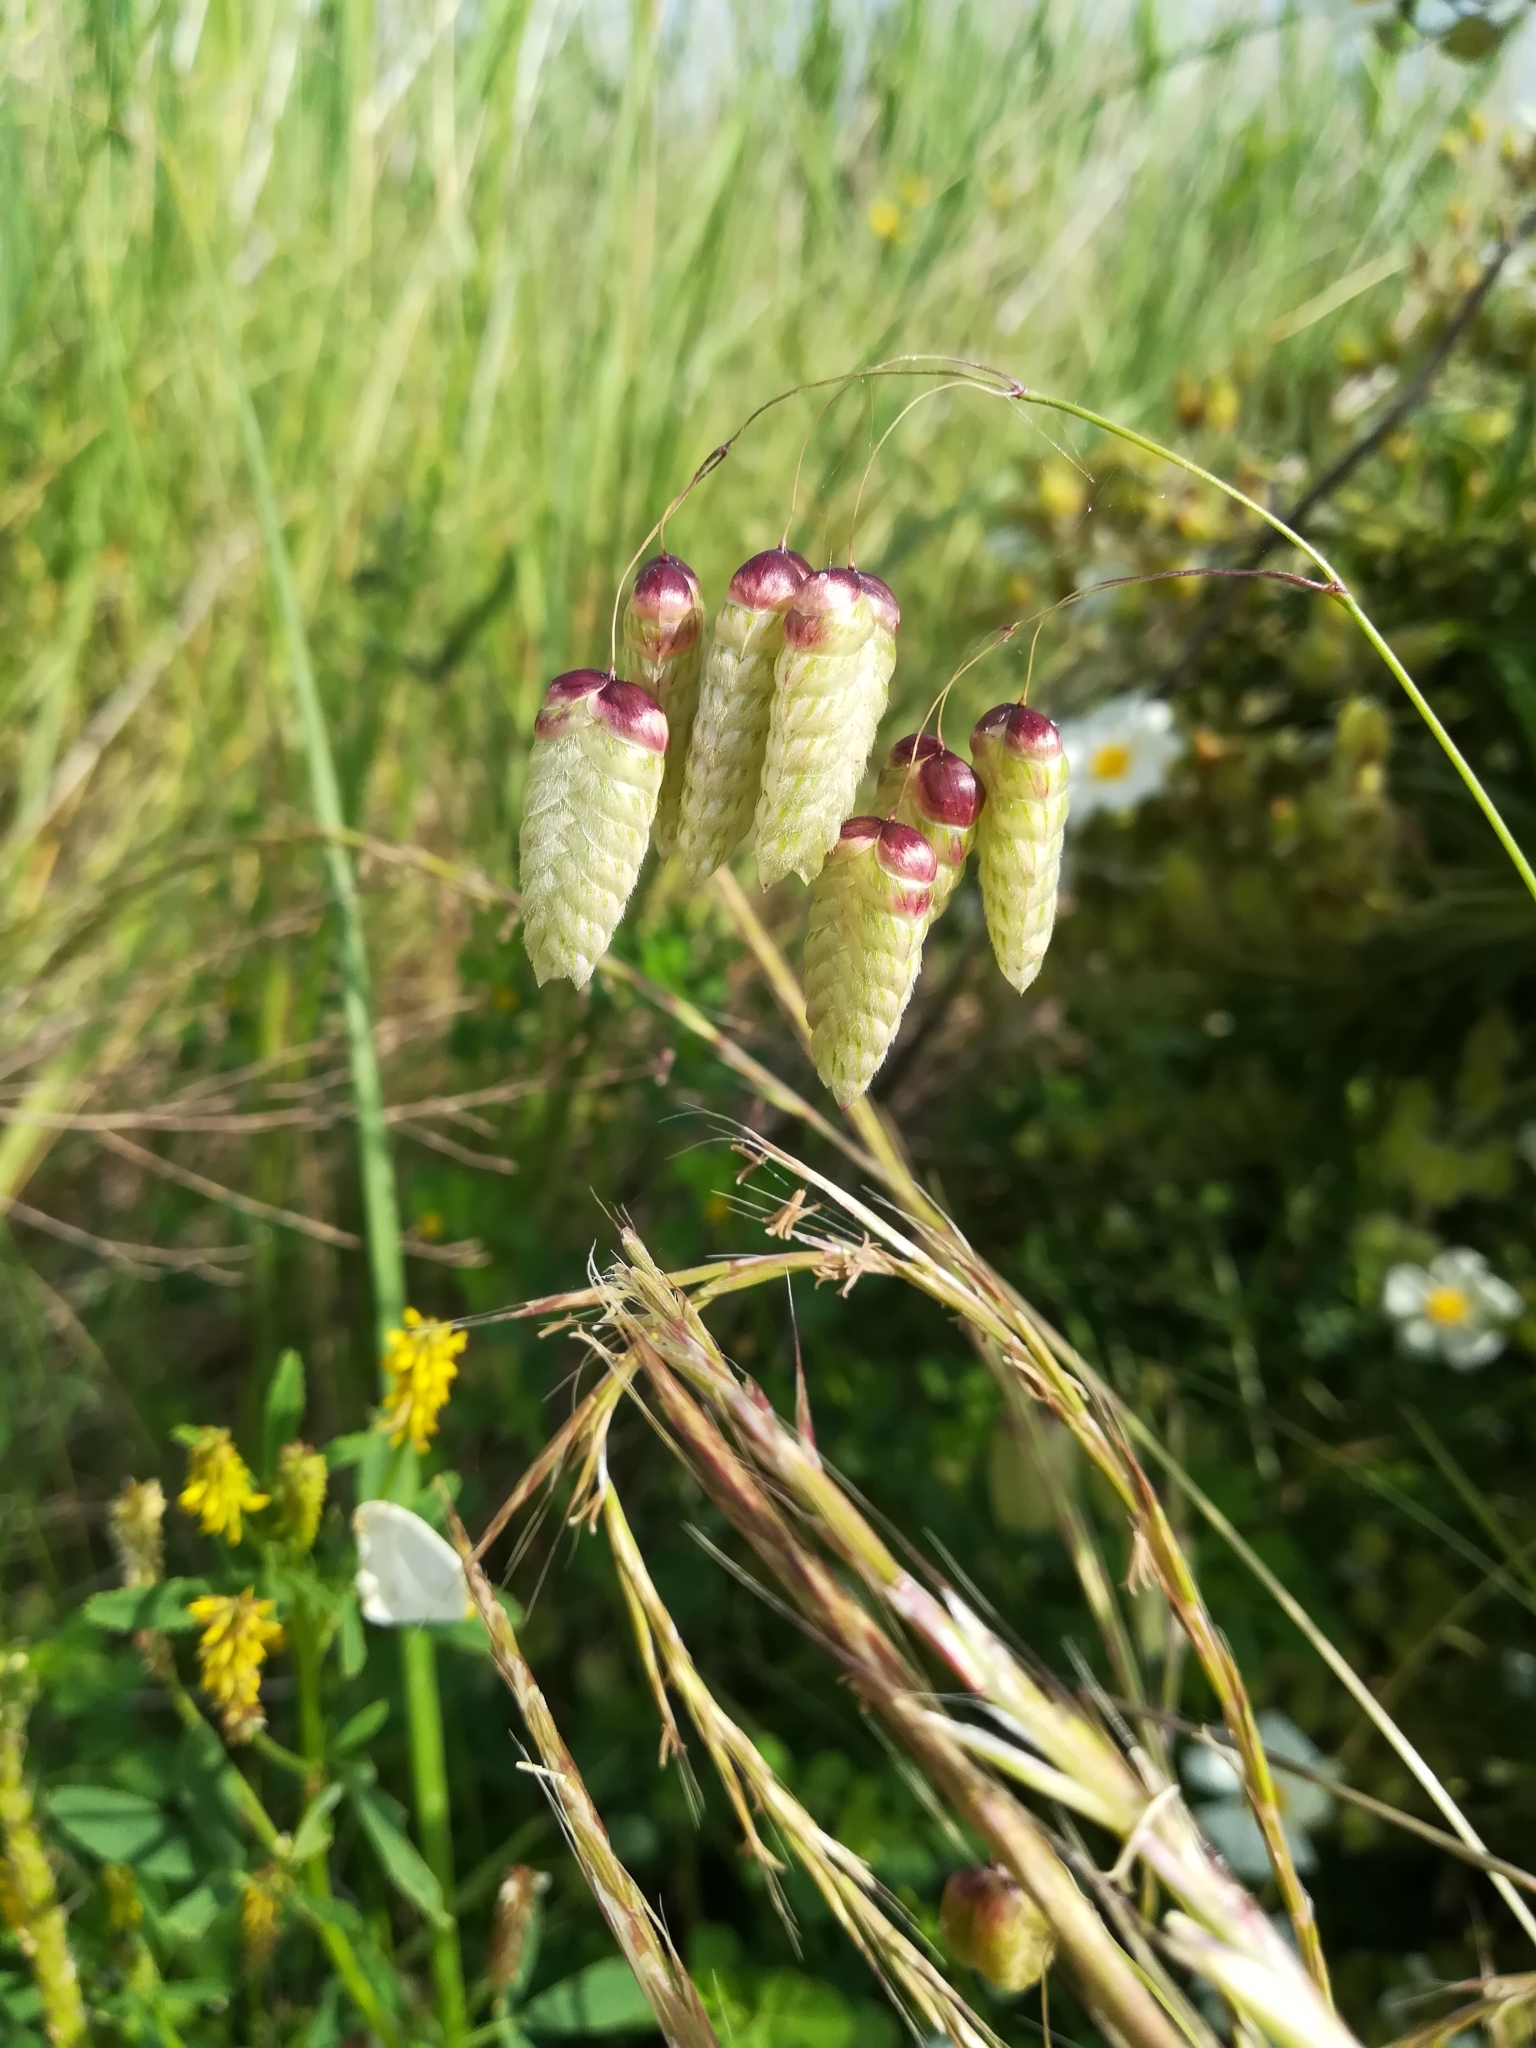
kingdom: Plantae
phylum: Tracheophyta
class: Liliopsida
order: Poales
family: Poaceae
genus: Briza
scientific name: Briza maxima
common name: Big quakinggrass
